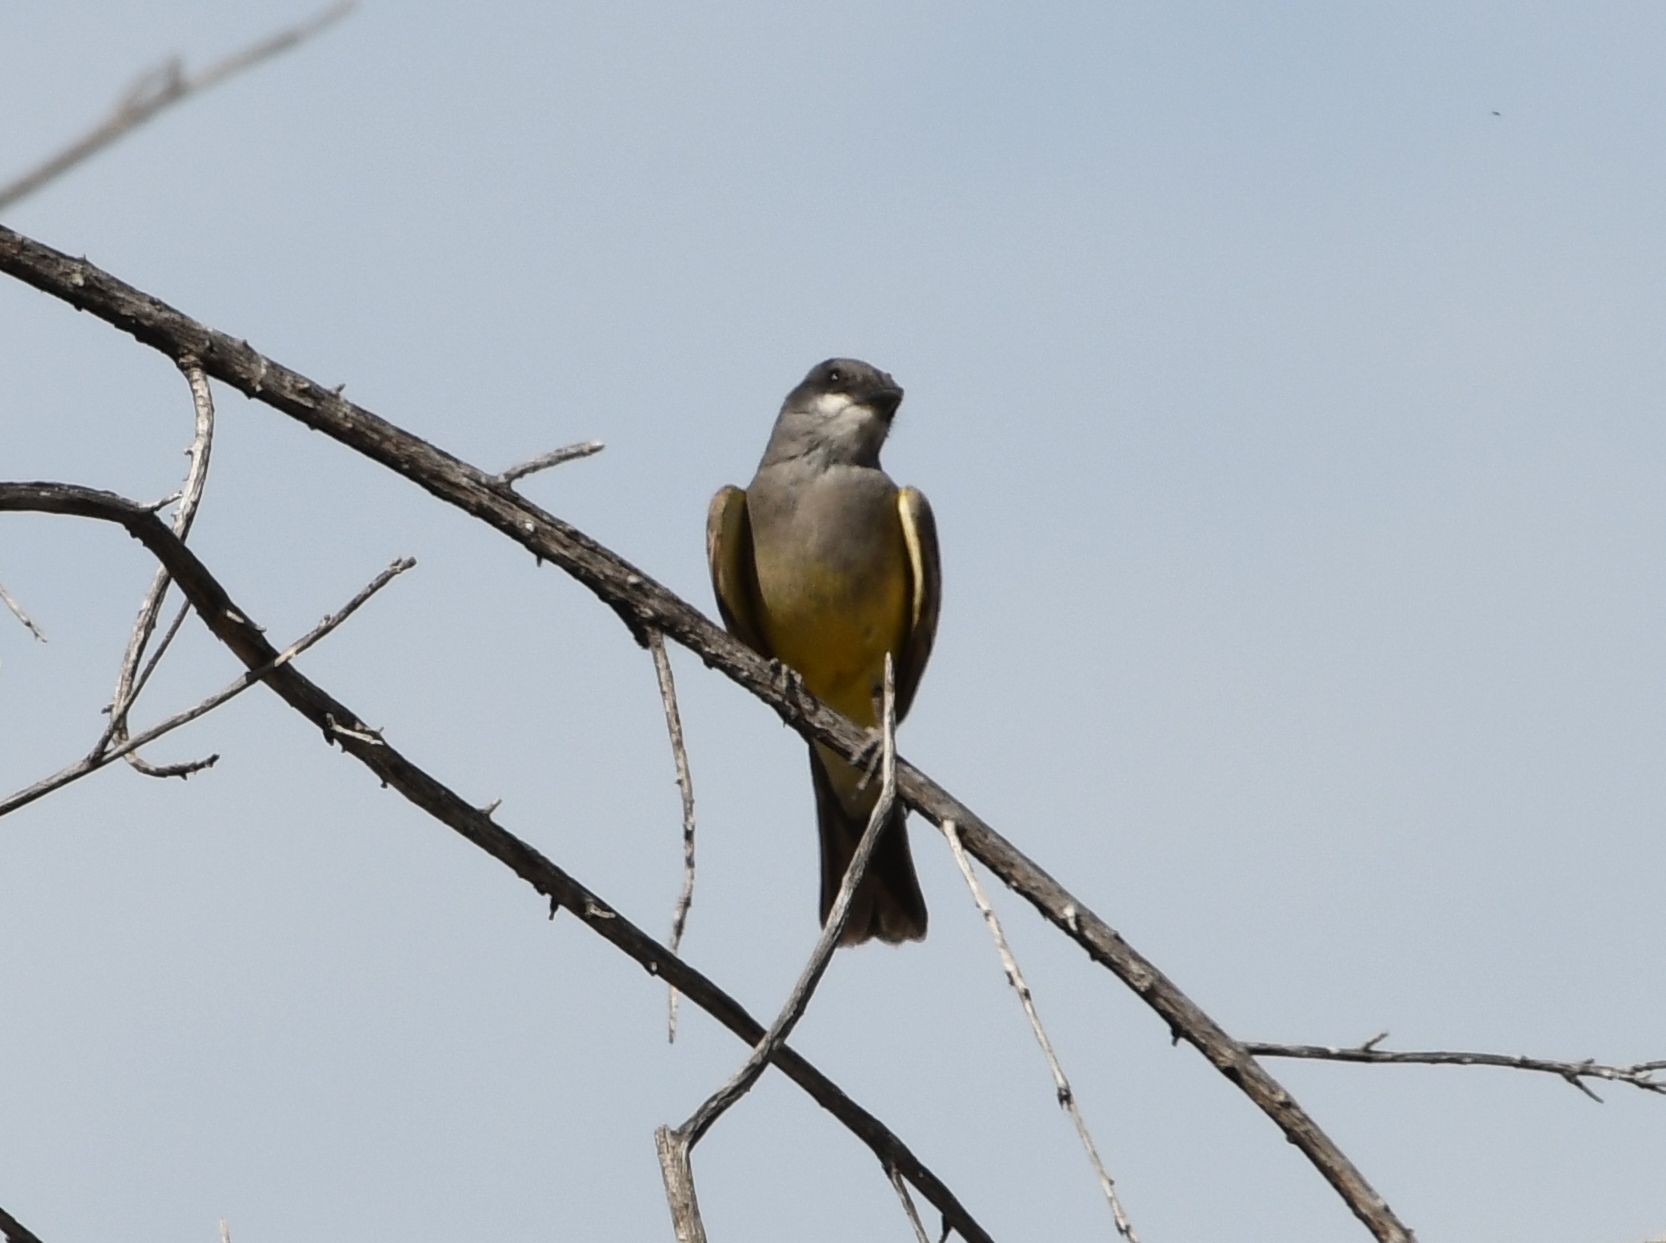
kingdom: Animalia
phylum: Chordata
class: Aves
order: Passeriformes
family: Tyrannidae
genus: Tyrannus
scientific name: Tyrannus vociferans
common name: Cassin's kingbird
